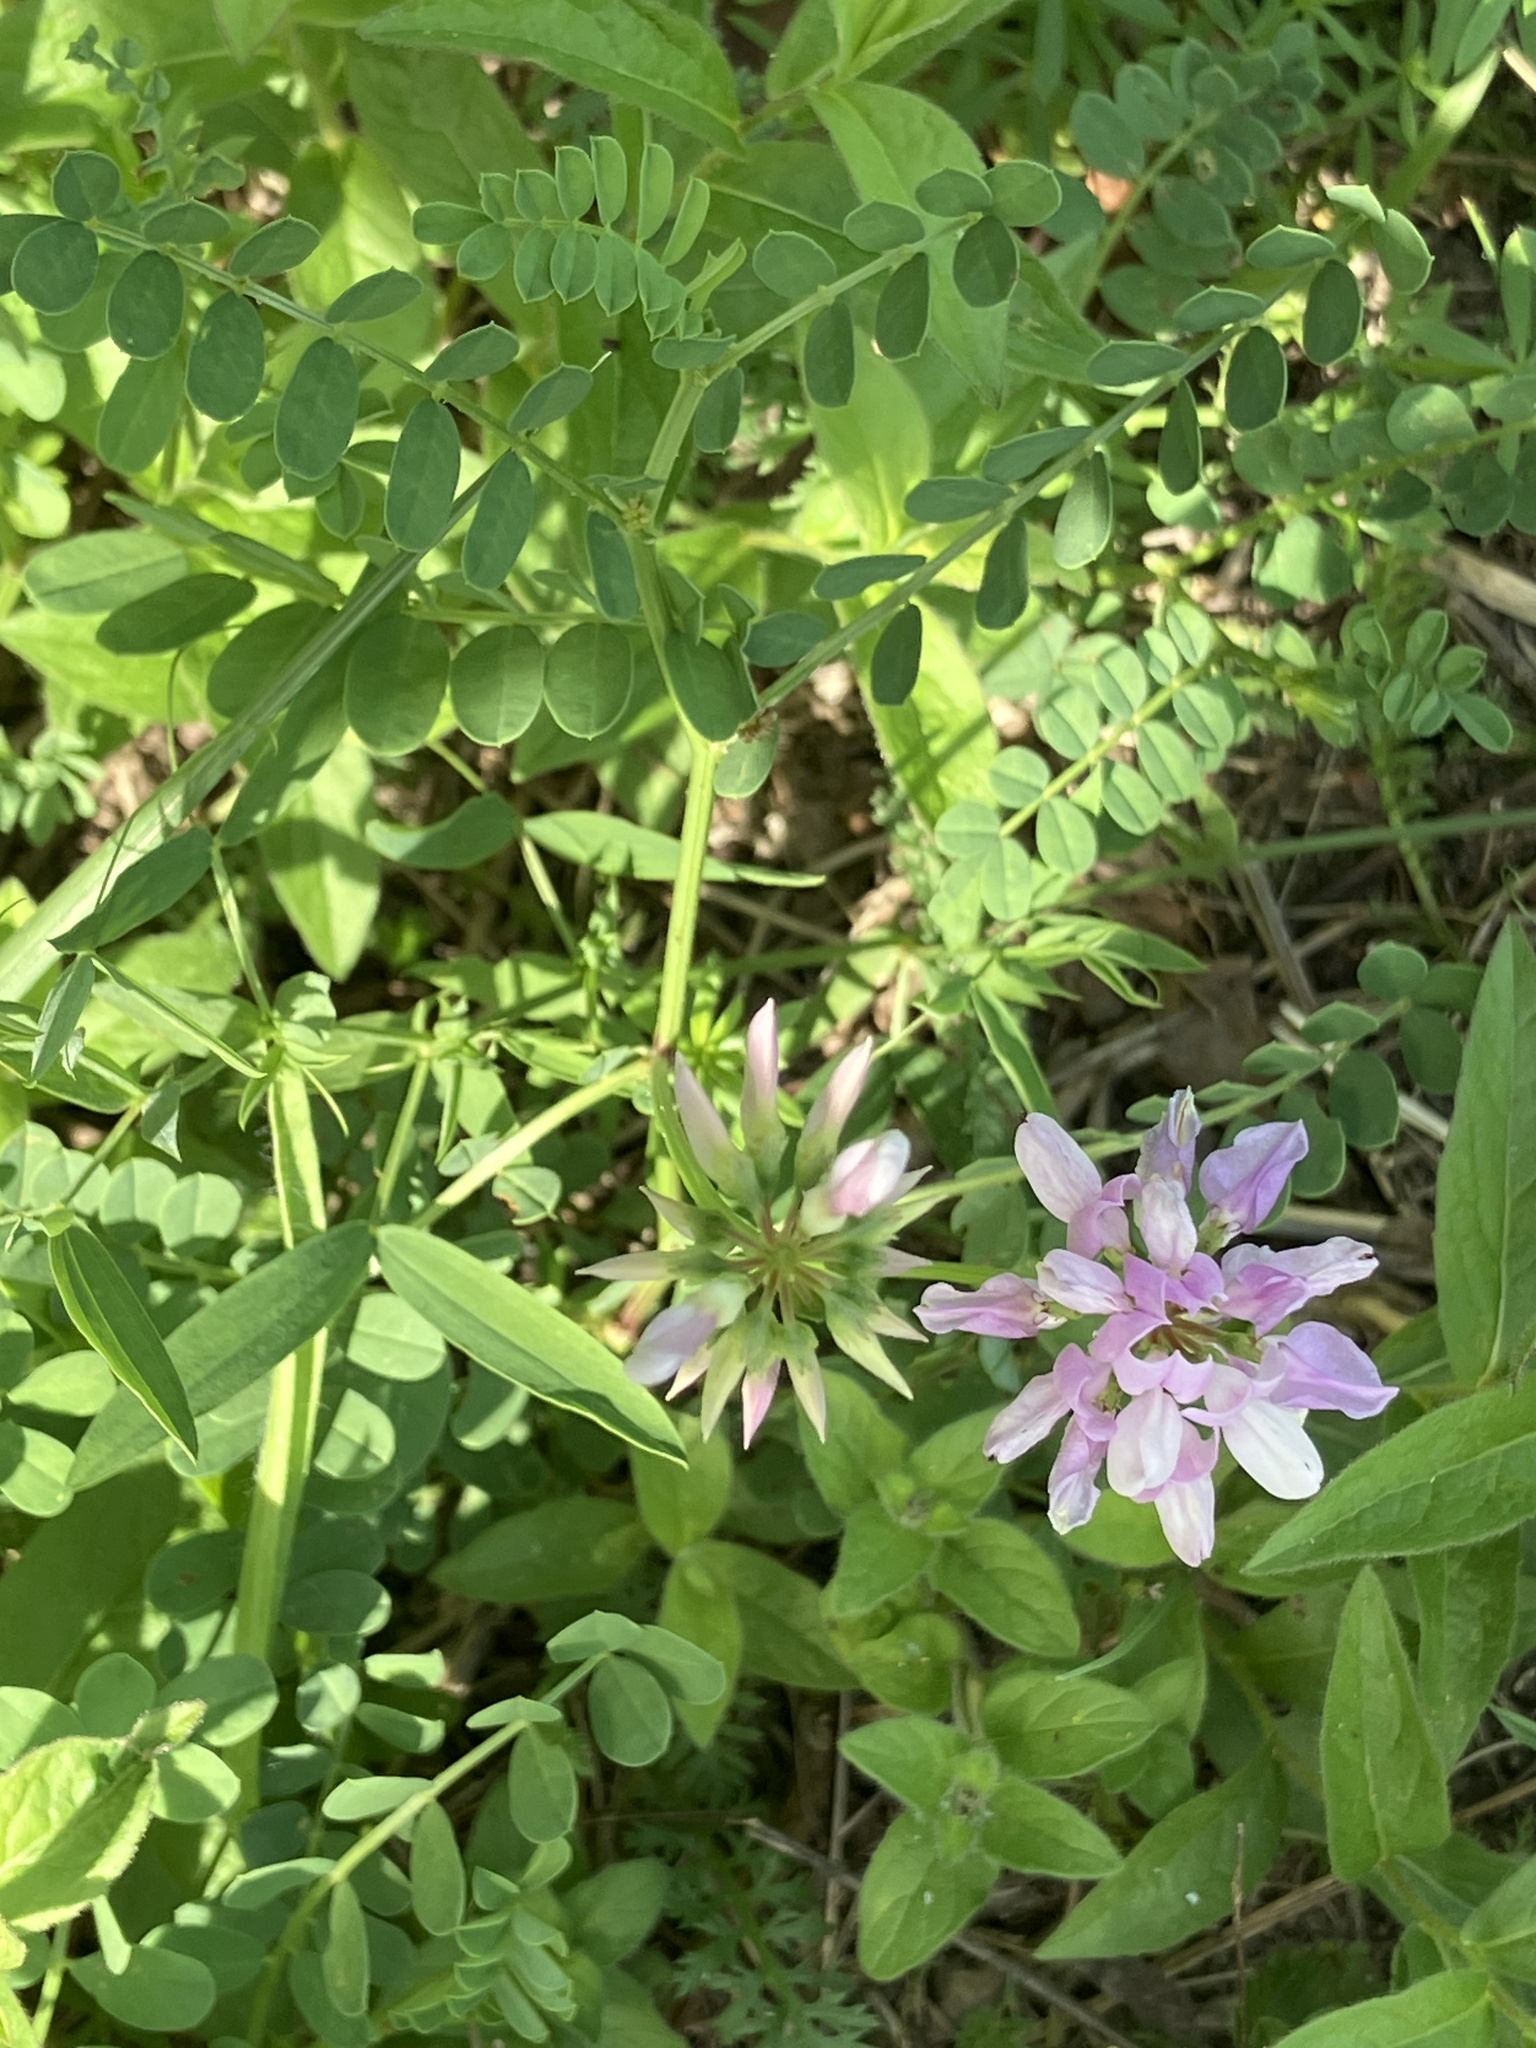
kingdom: Plantae
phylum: Tracheophyta
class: Magnoliopsida
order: Fabales
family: Fabaceae
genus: Coronilla
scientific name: Coronilla varia
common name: Crownvetch
